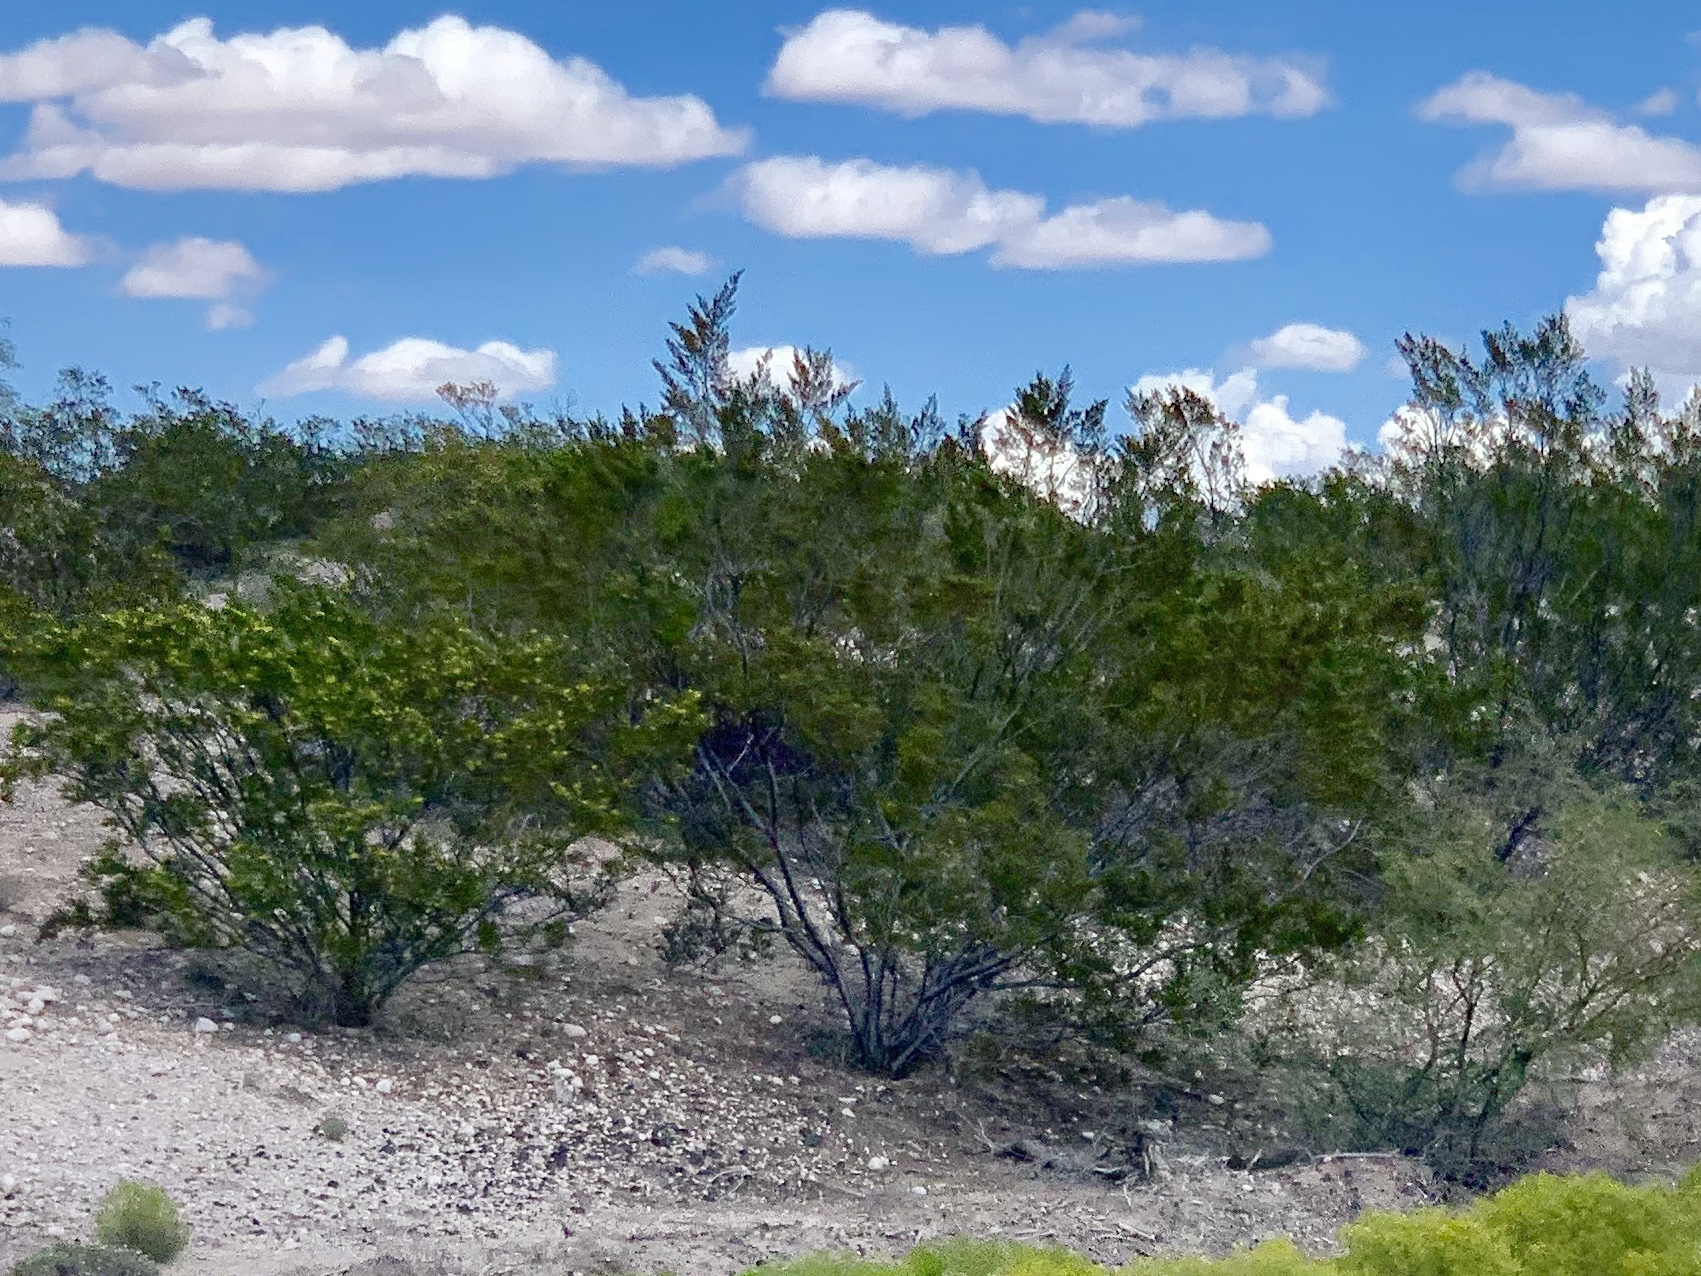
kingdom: Plantae
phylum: Tracheophyta
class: Magnoliopsida
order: Zygophyllales
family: Zygophyllaceae
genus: Larrea
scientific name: Larrea tridentata
